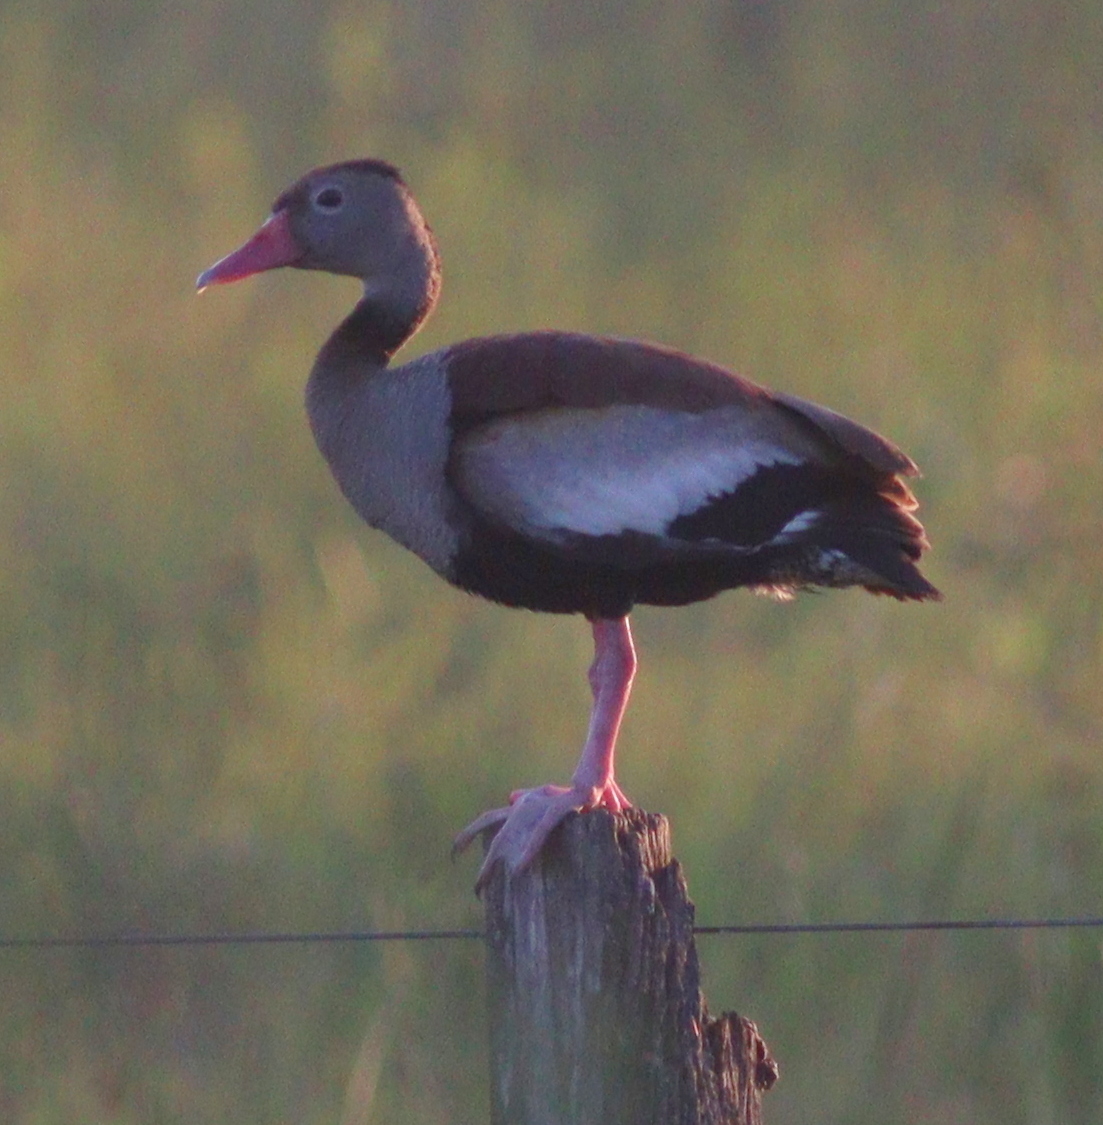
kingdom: Animalia
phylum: Chordata
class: Aves
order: Anseriformes
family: Anatidae
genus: Dendrocygna
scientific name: Dendrocygna autumnalis
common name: Black-bellied whistling duck
